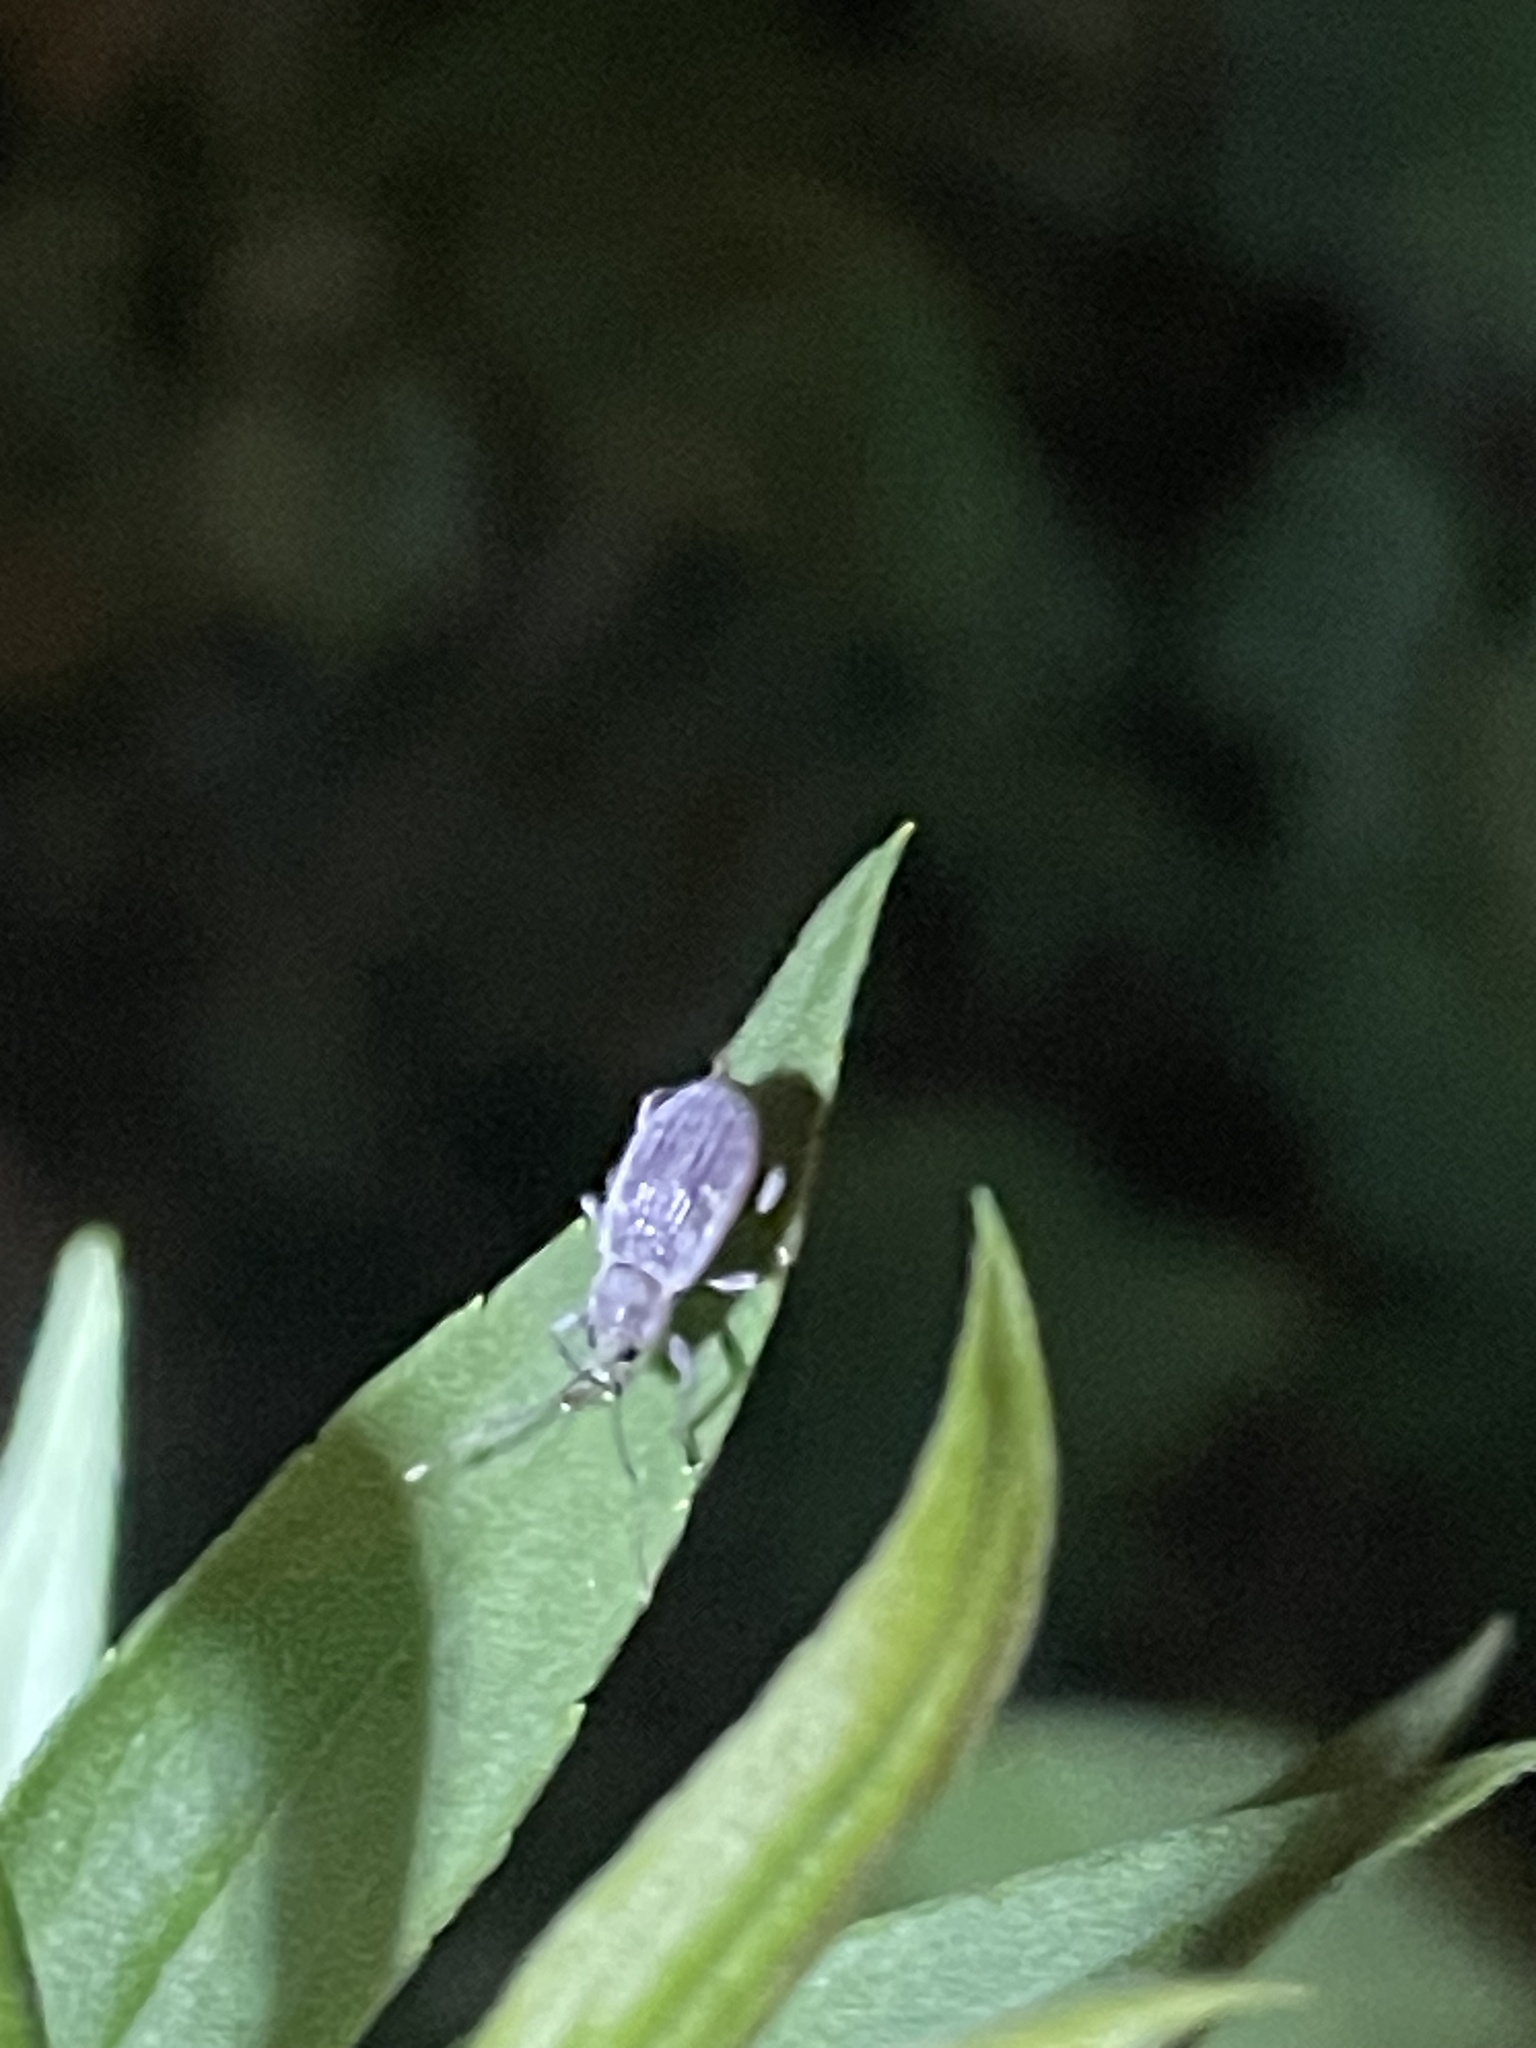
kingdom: Animalia
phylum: Arthropoda
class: Insecta
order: Coleoptera
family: Curculionidae
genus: Cyrtepistomus
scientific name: Cyrtepistomus castaneus
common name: Weevil
